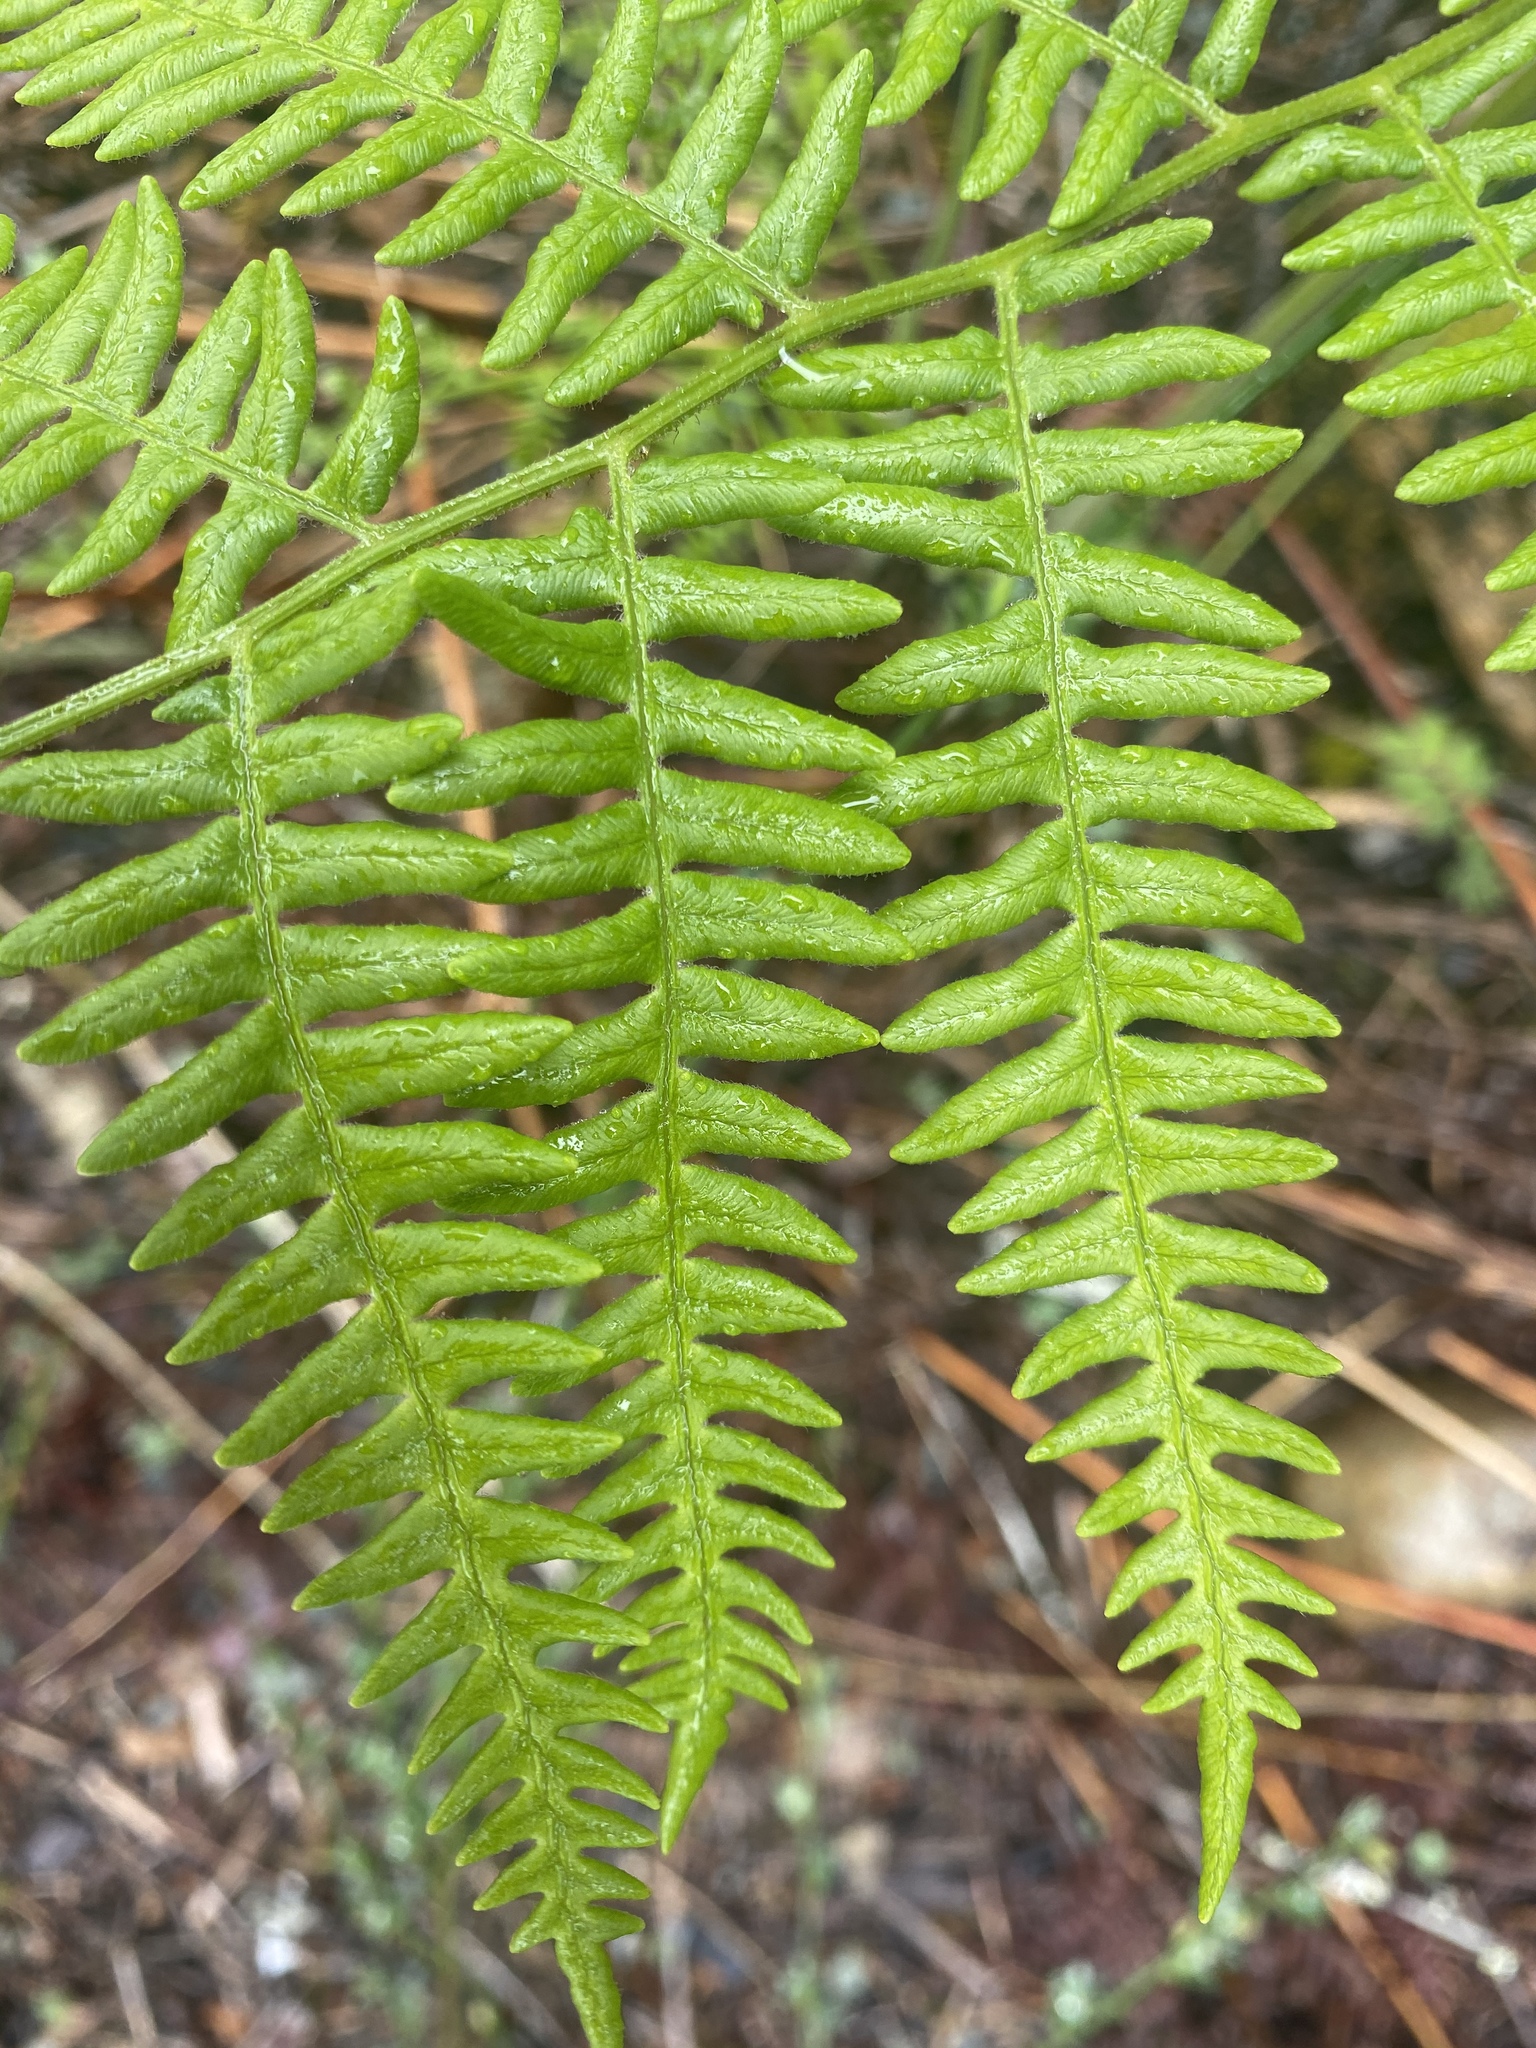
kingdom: Plantae
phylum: Tracheophyta
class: Polypodiopsida
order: Polypodiales
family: Dennstaedtiaceae
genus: Pteridium
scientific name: Pteridium aquilinum
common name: Bracken
